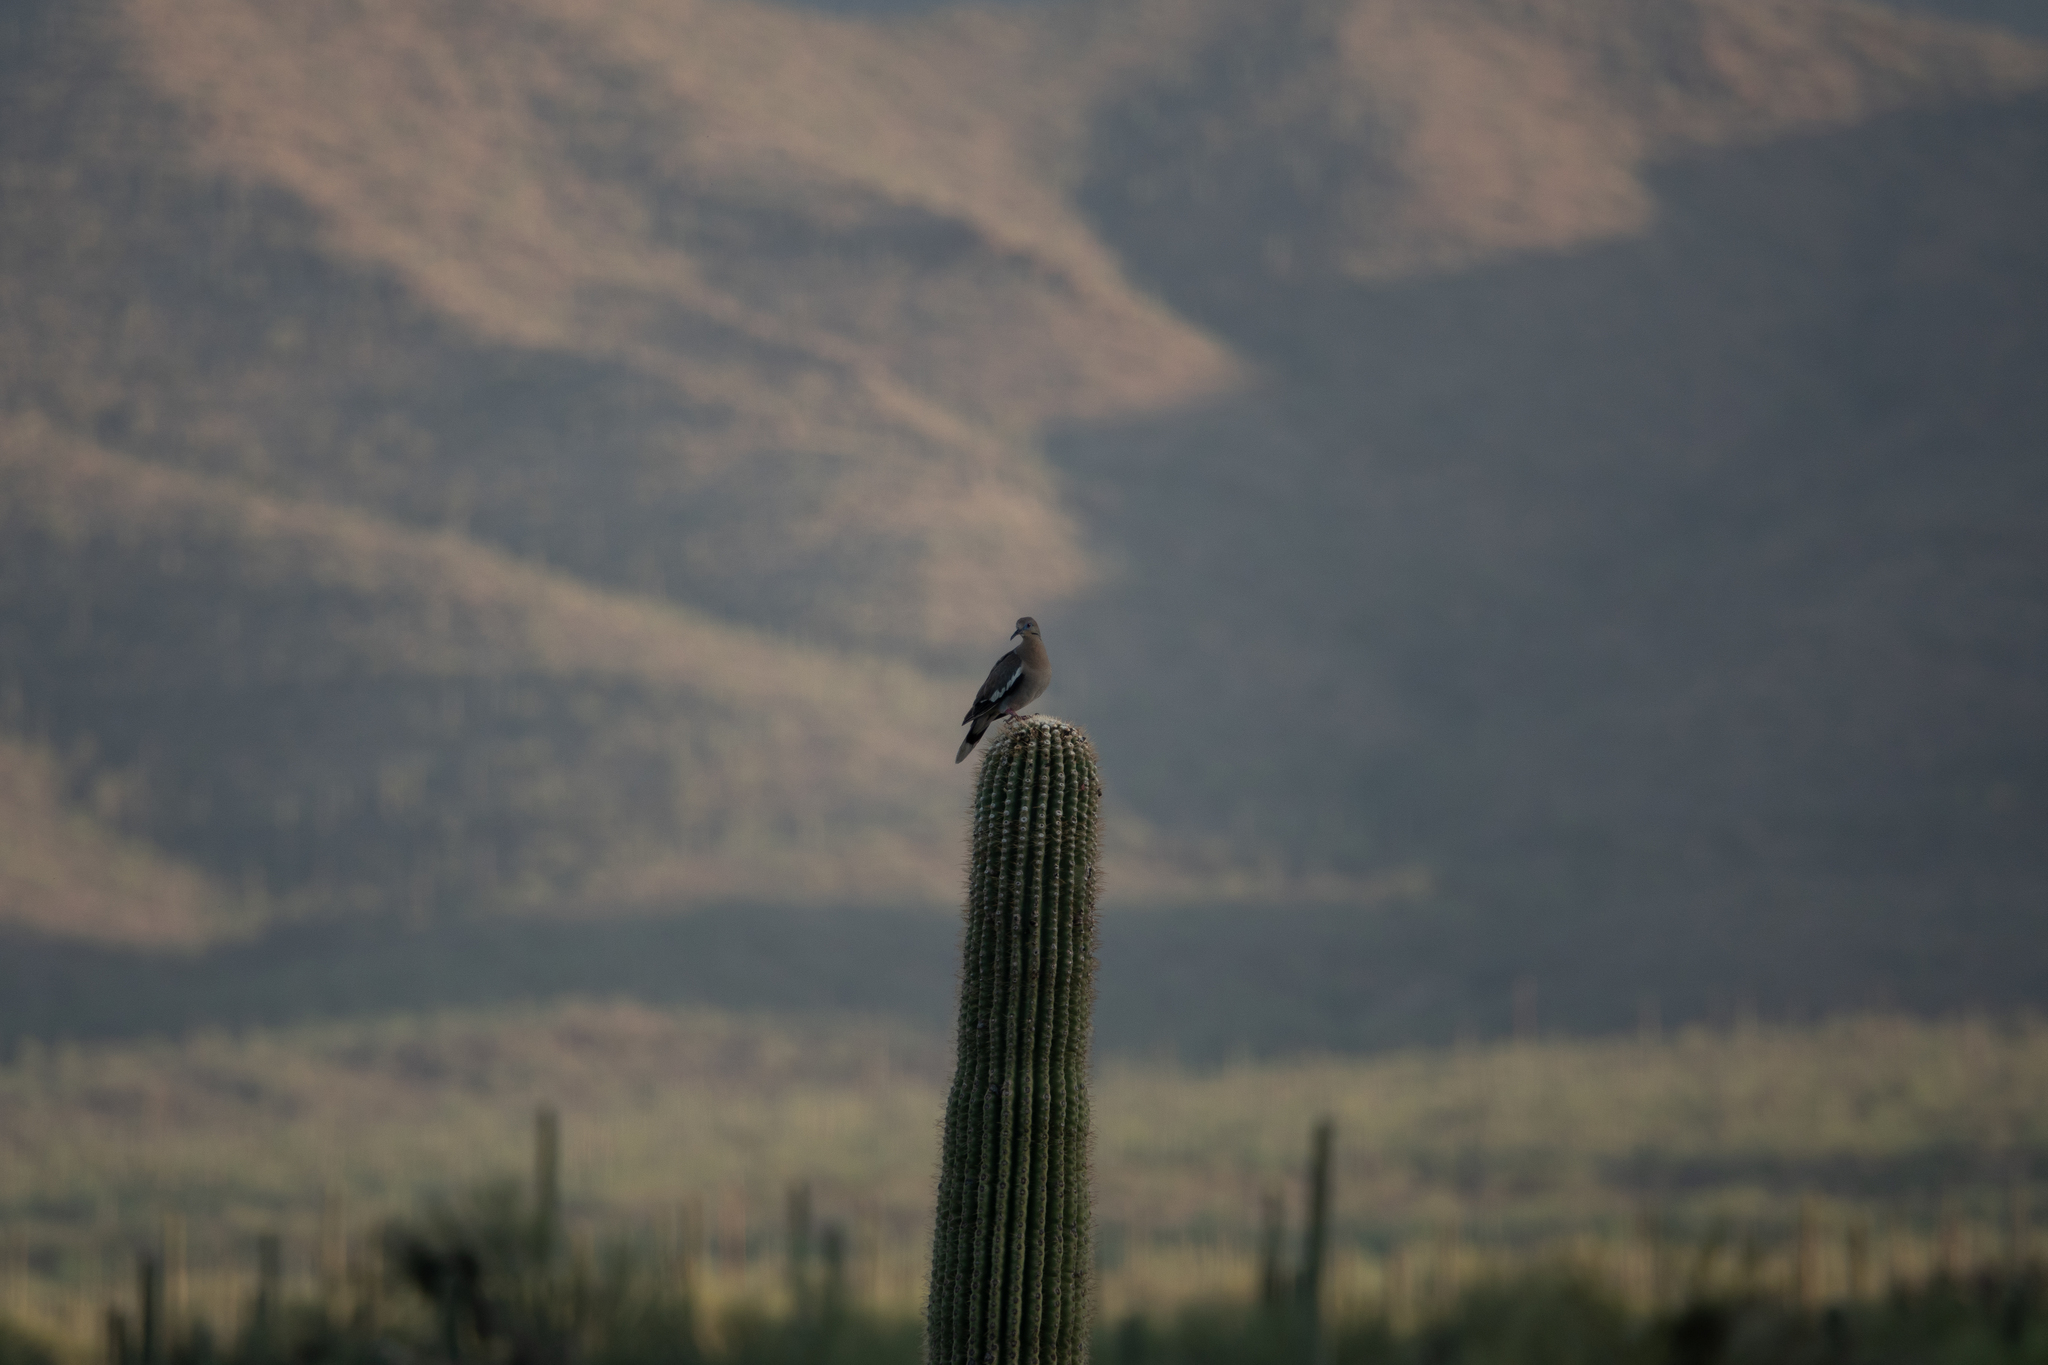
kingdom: Animalia
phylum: Chordata
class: Aves
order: Columbiformes
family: Columbidae
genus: Zenaida
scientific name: Zenaida asiatica
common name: White-winged dove
